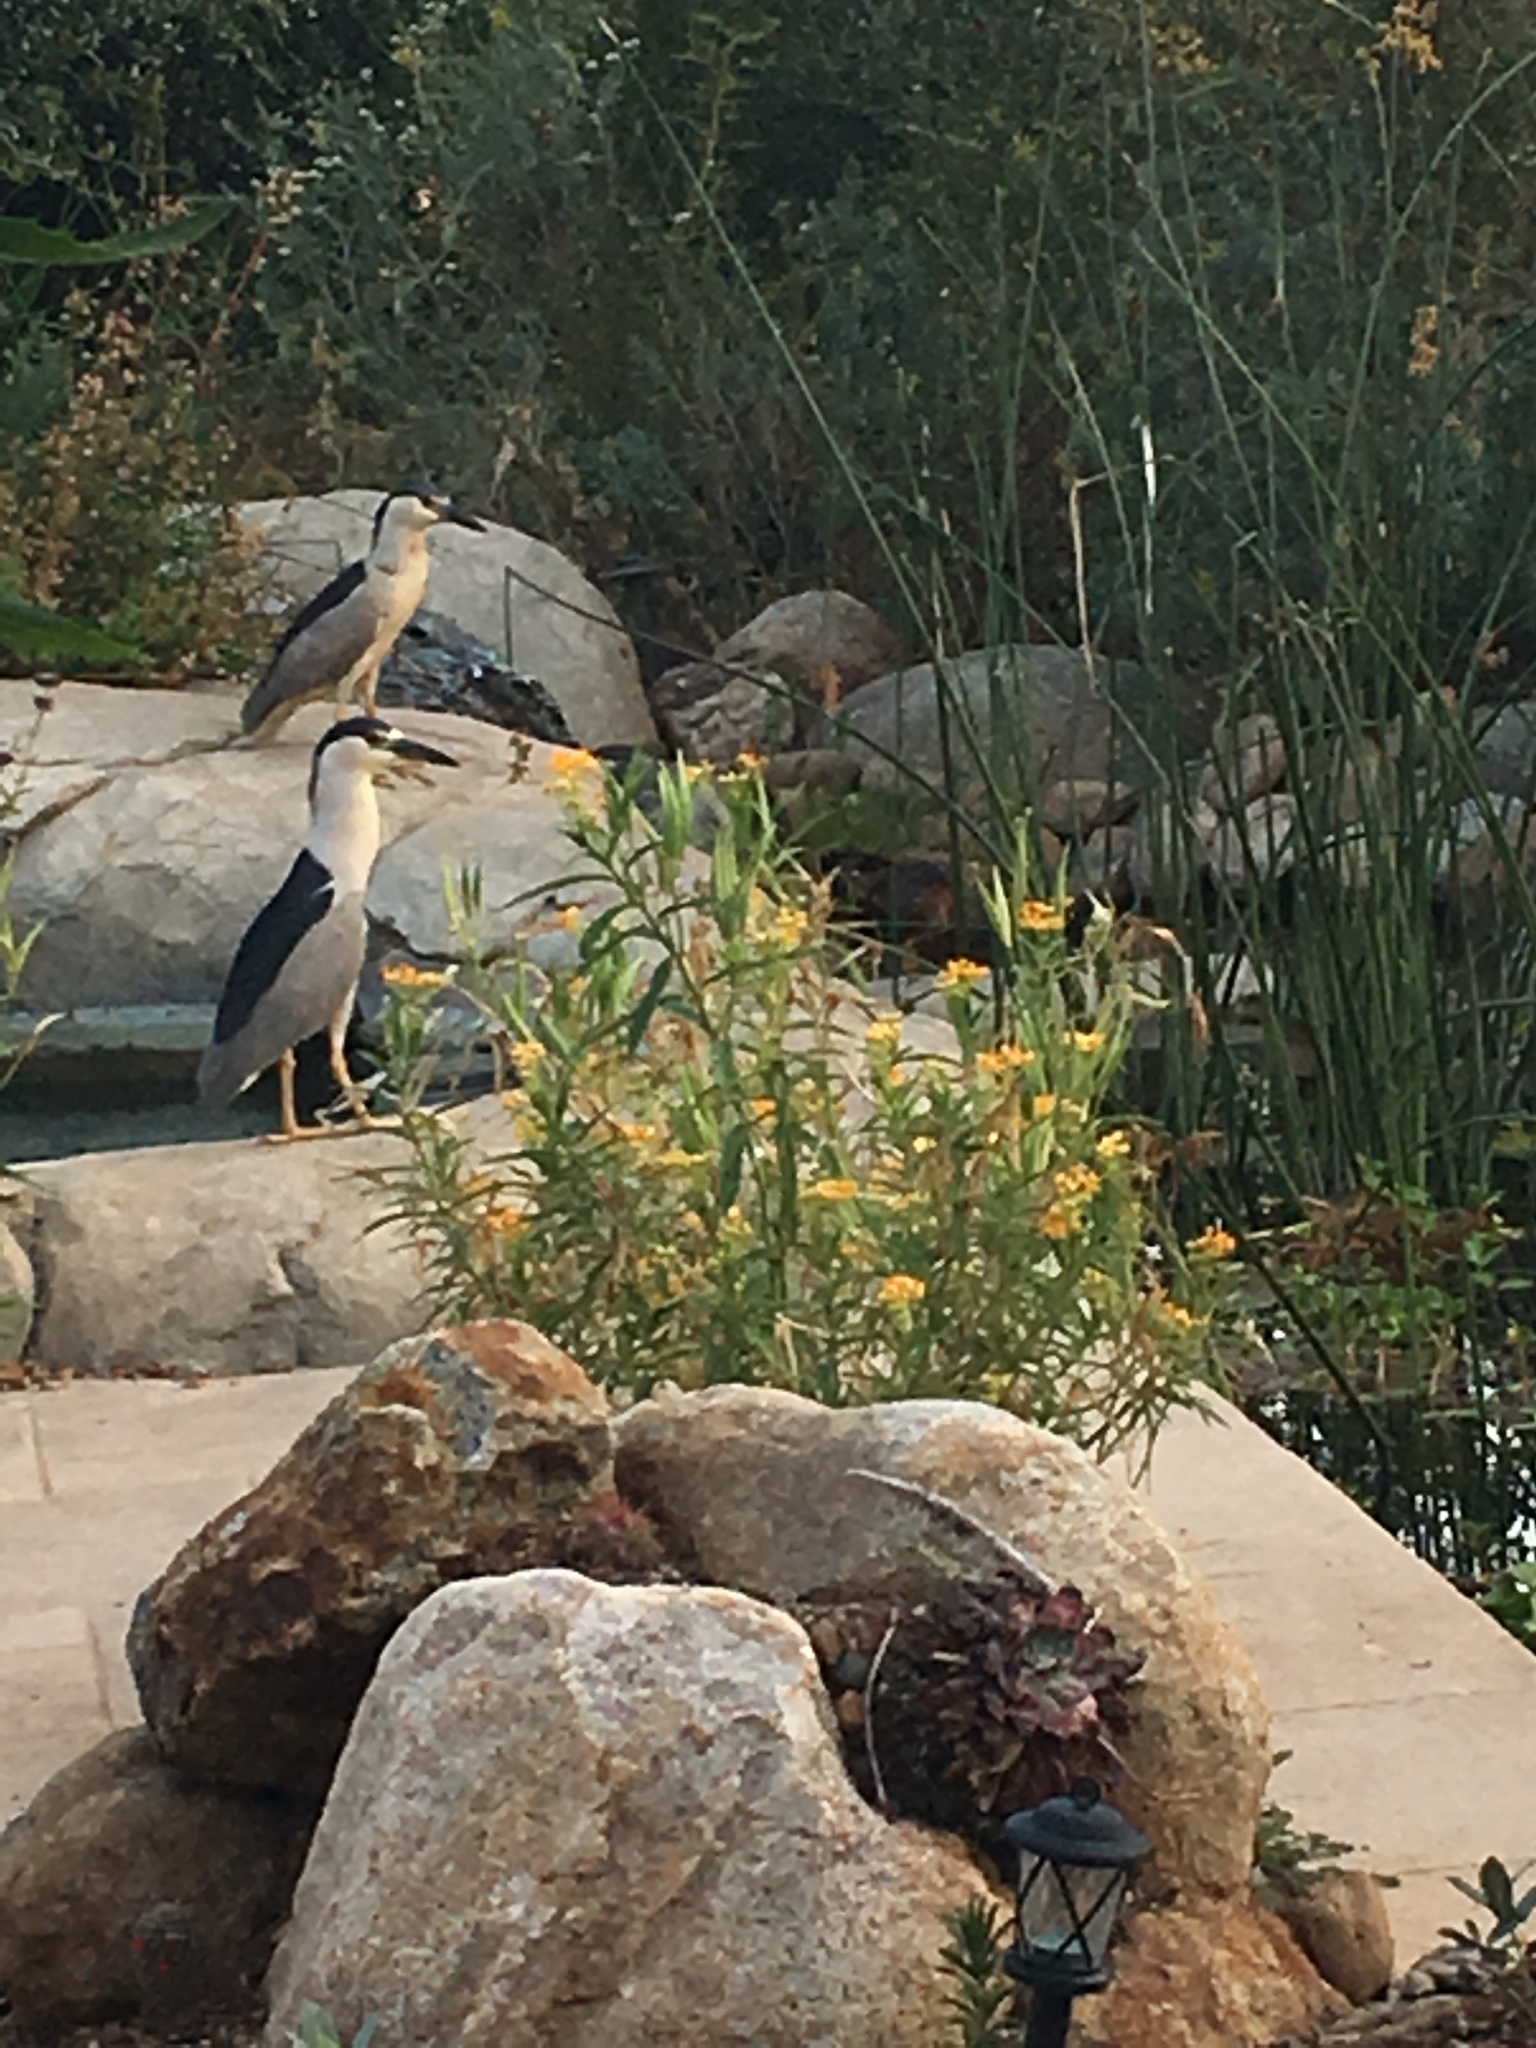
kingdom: Animalia
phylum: Chordata
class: Aves
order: Pelecaniformes
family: Ardeidae
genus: Nycticorax
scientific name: Nycticorax nycticorax
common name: Black-crowned night heron
